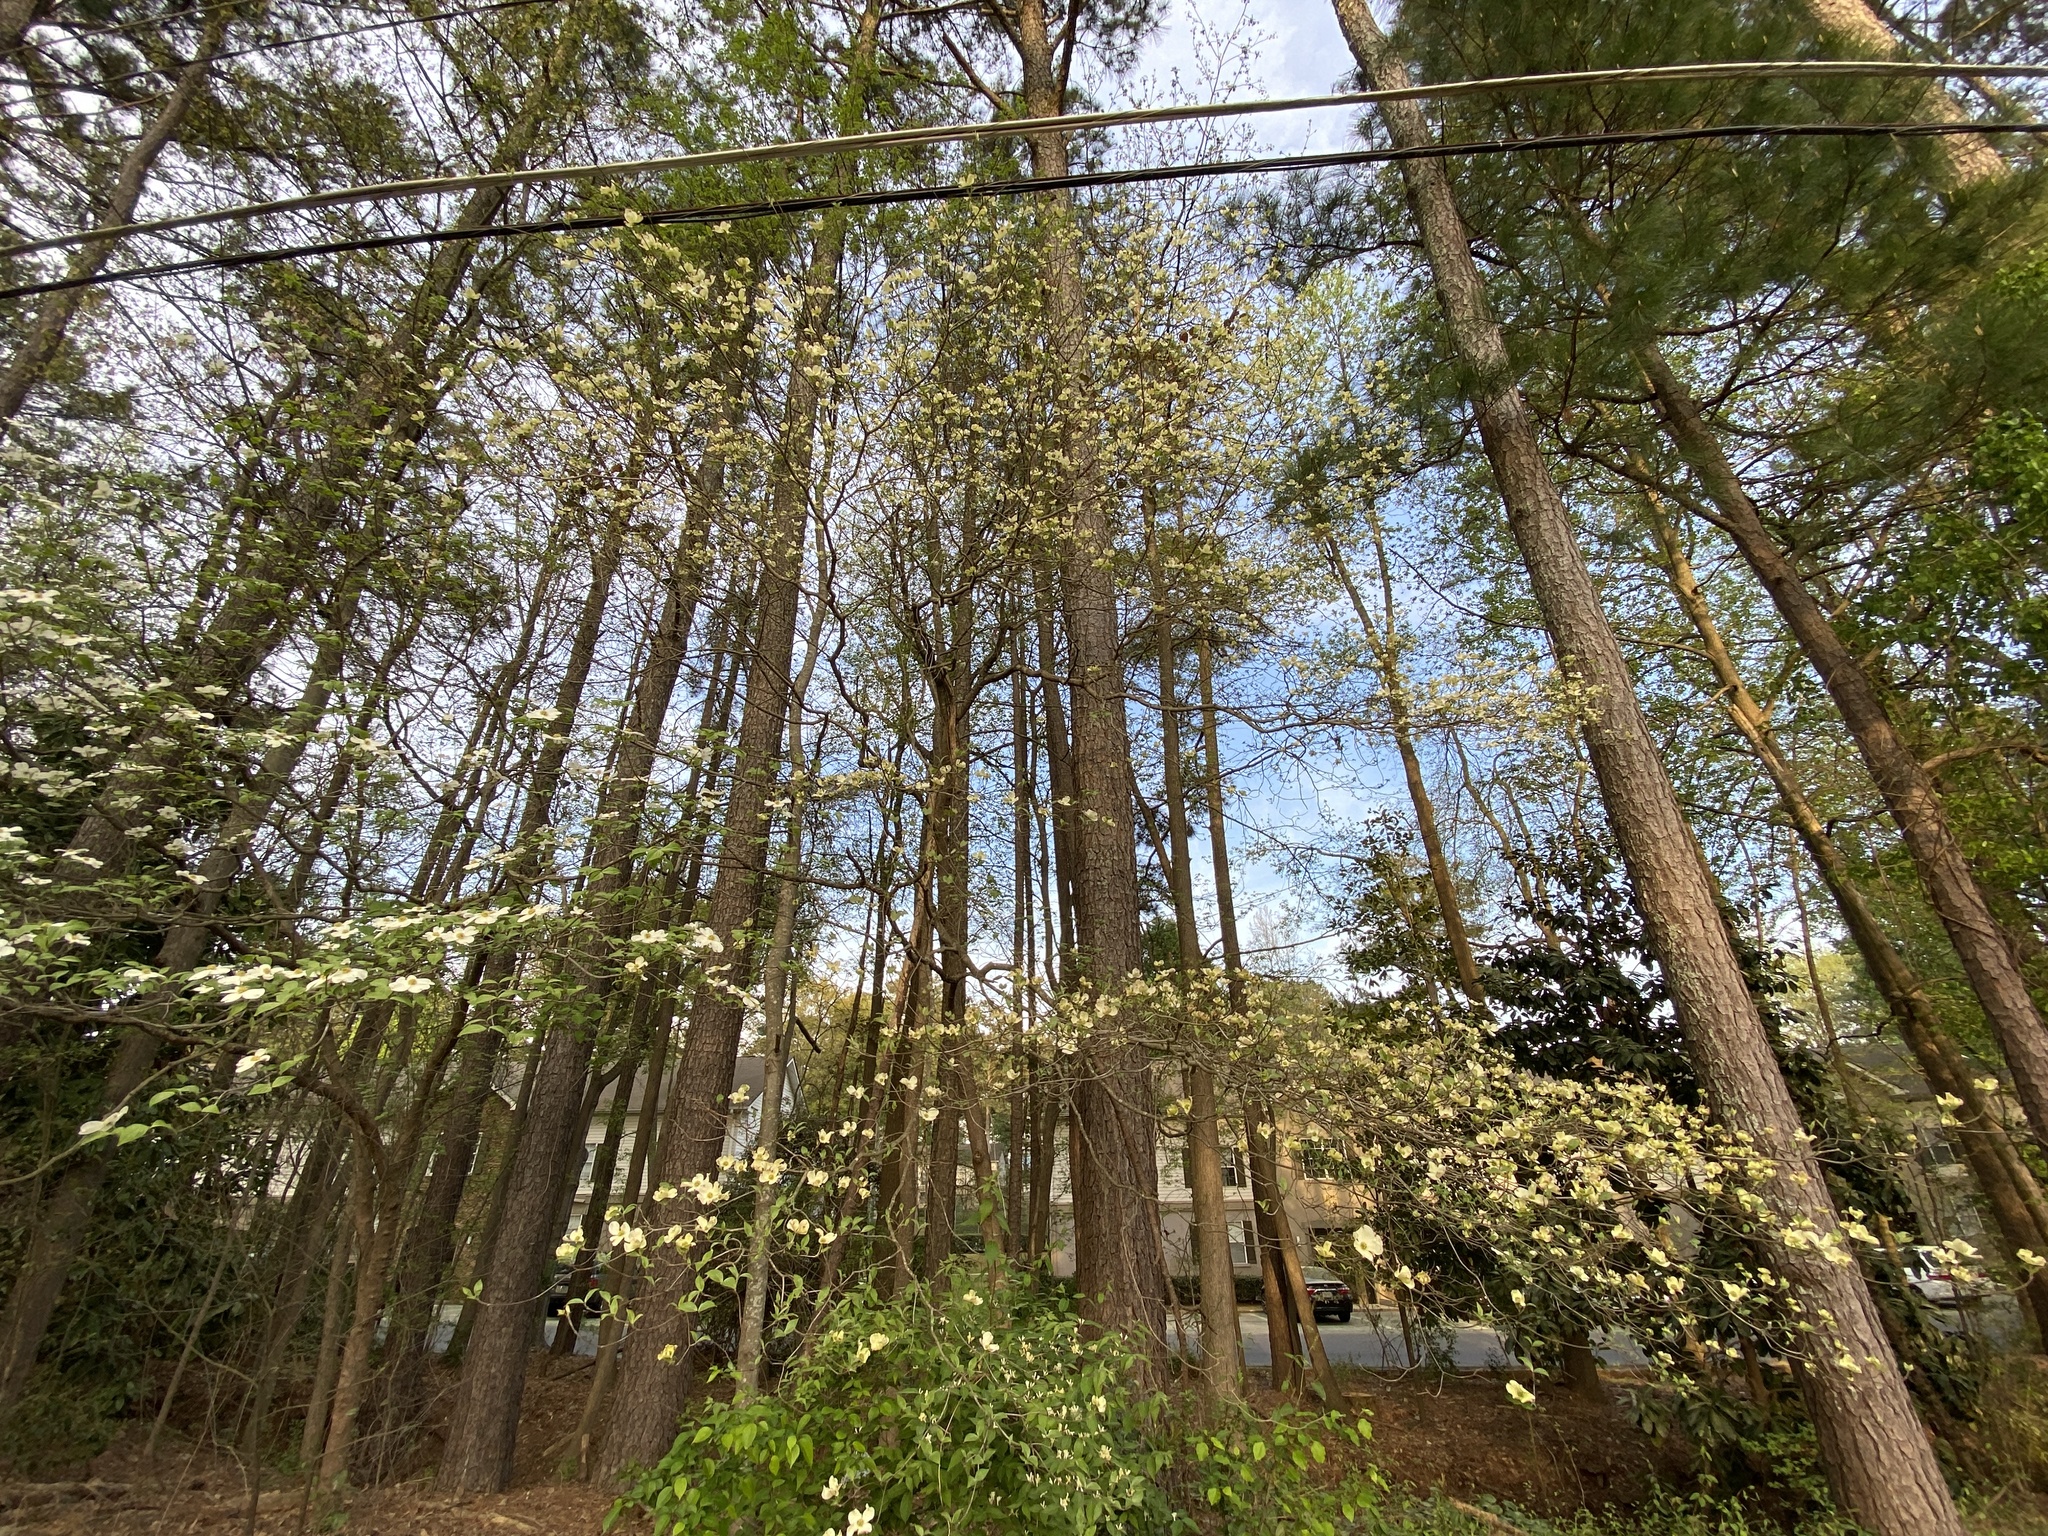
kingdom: Plantae
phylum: Tracheophyta
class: Magnoliopsida
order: Cornales
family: Cornaceae
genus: Cornus
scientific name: Cornus florida
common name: Flowering dogwood
